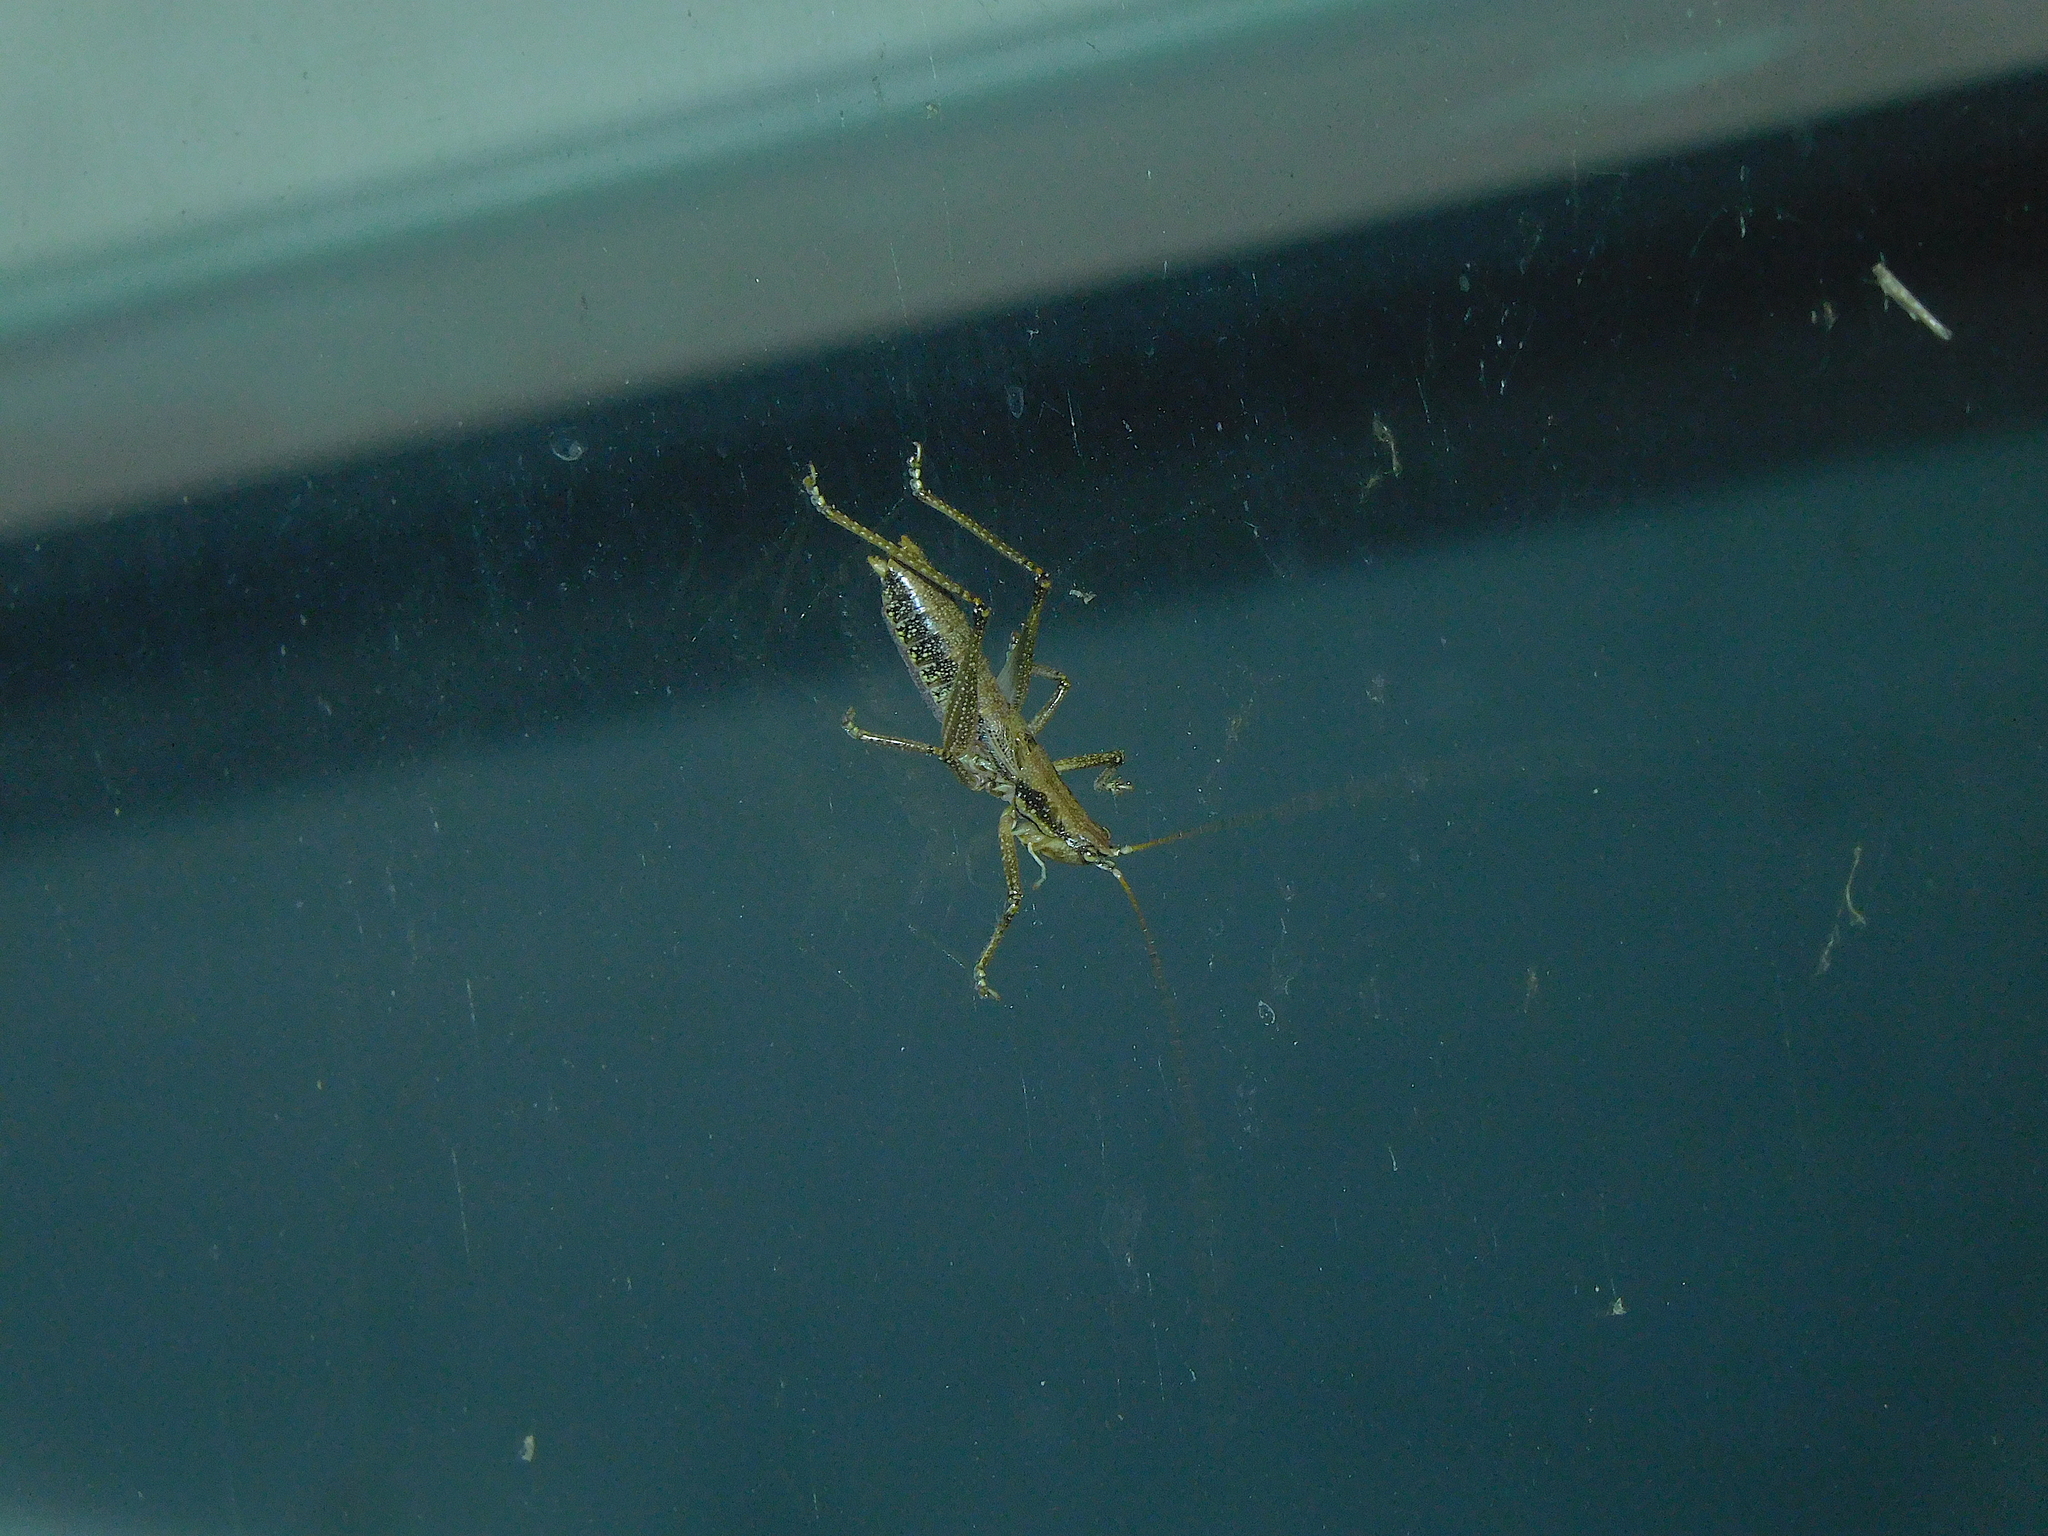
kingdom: Animalia
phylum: Arthropoda
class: Insecta
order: Orthoptera
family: Tettigoniidae
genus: Coptaspis
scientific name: Coptaspis lateralis
